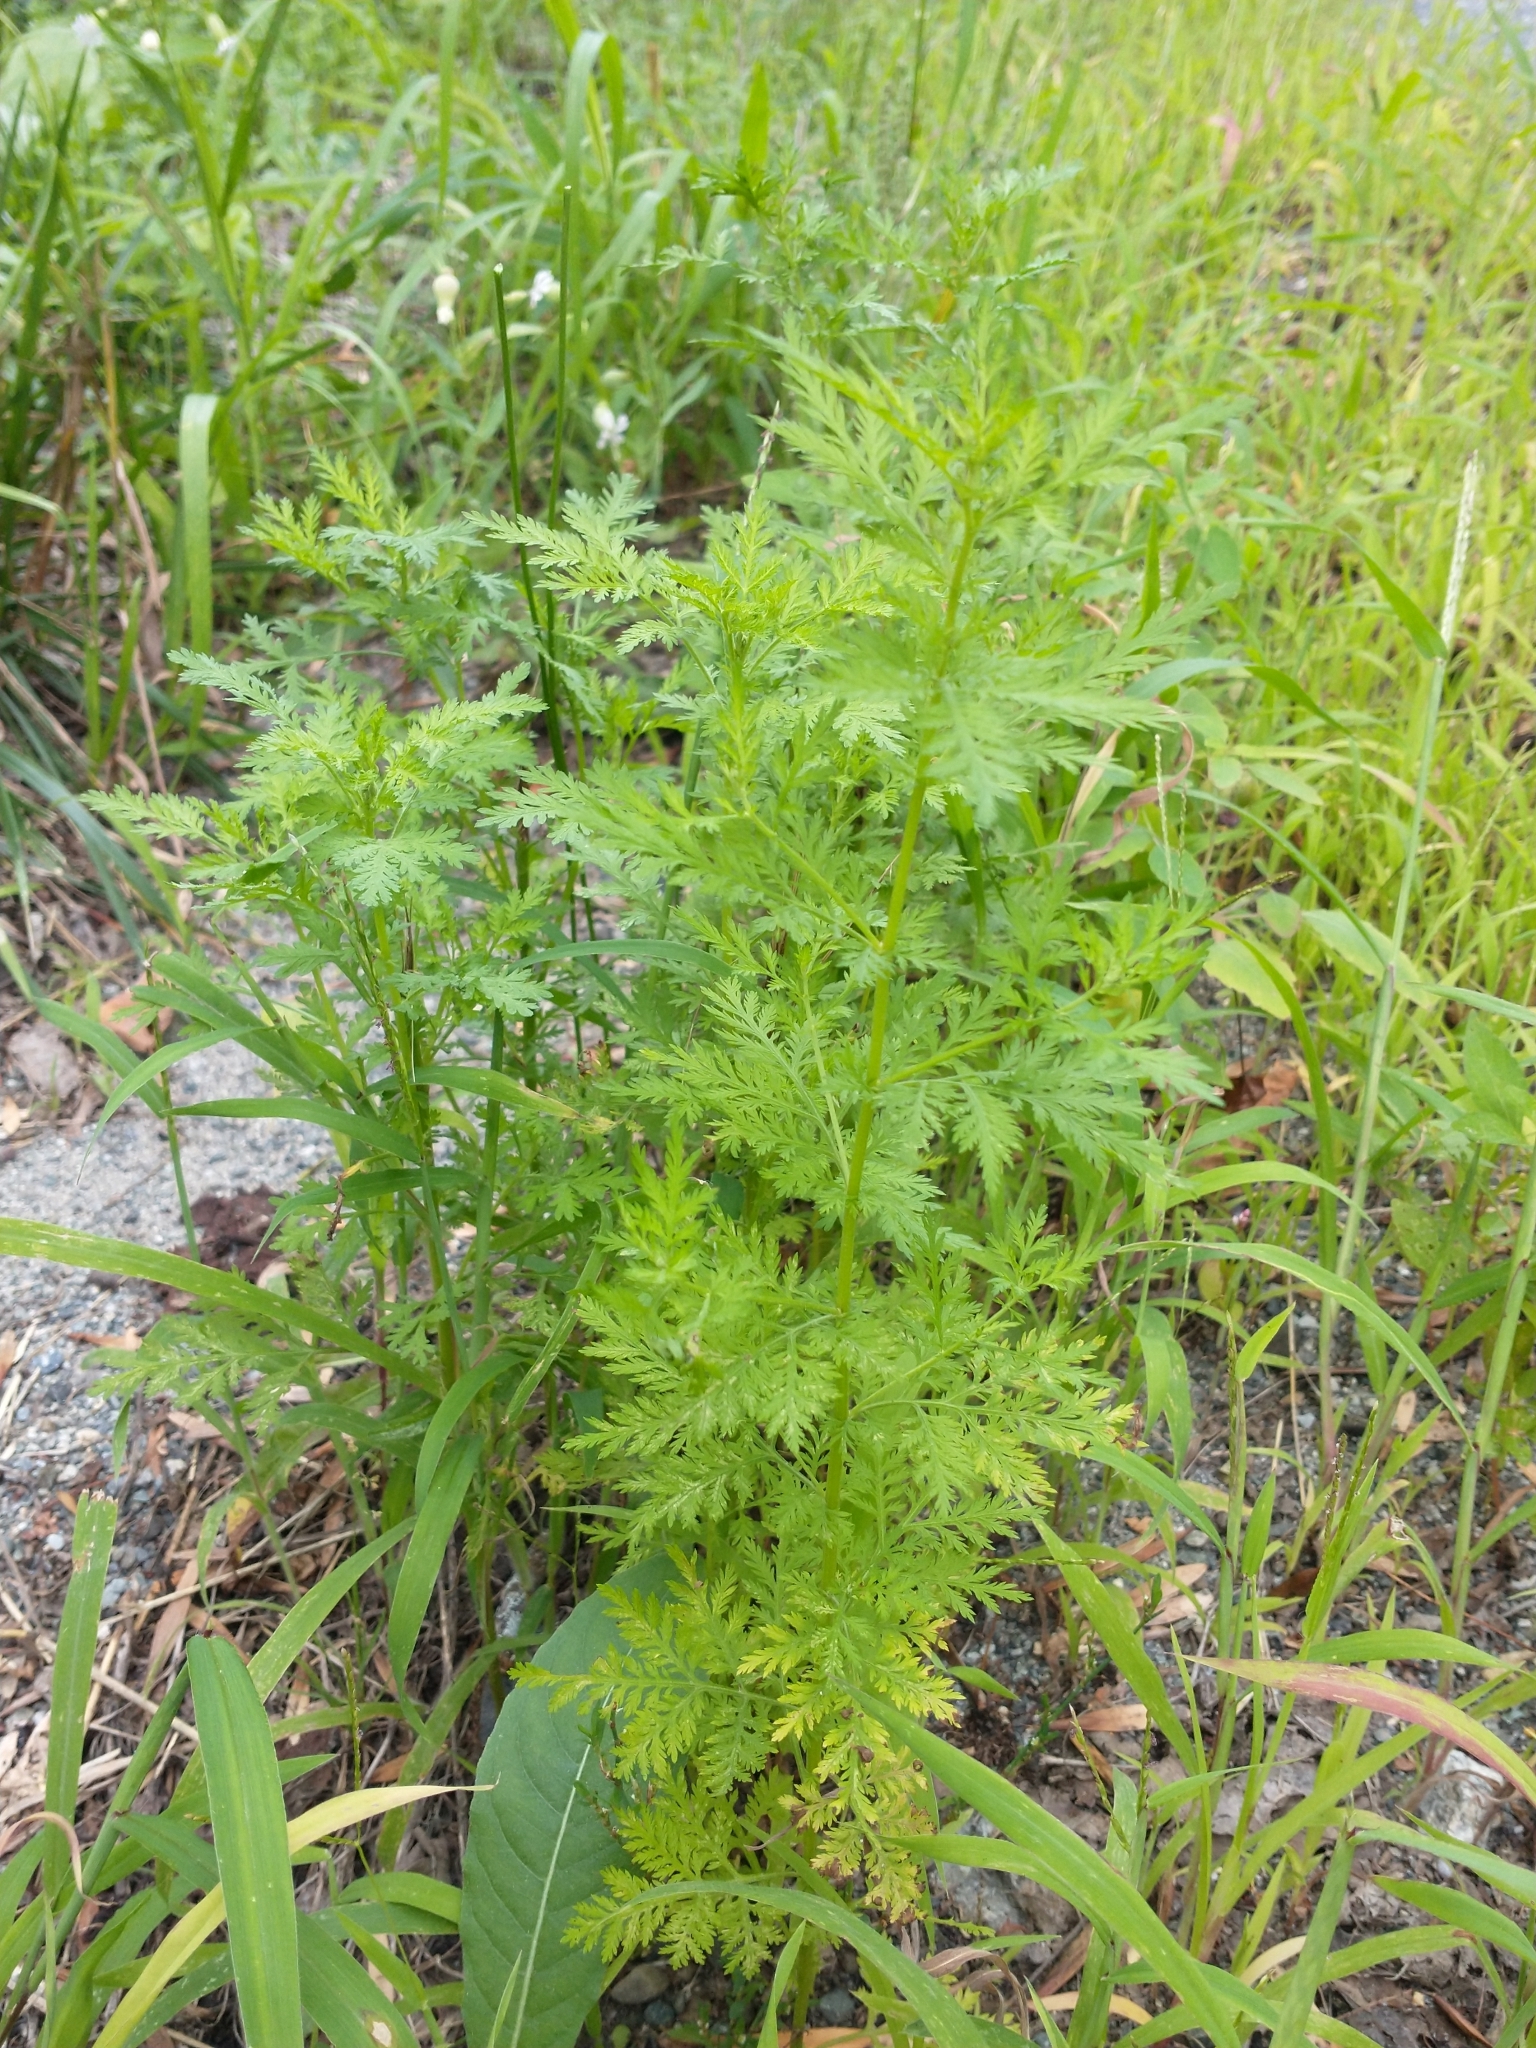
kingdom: Plantae
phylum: Tracheophyta
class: Magnoliopsida
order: Asterales
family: Asteraceae
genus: Artemisia
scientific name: Artemisia annua
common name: Sweet sagewort
